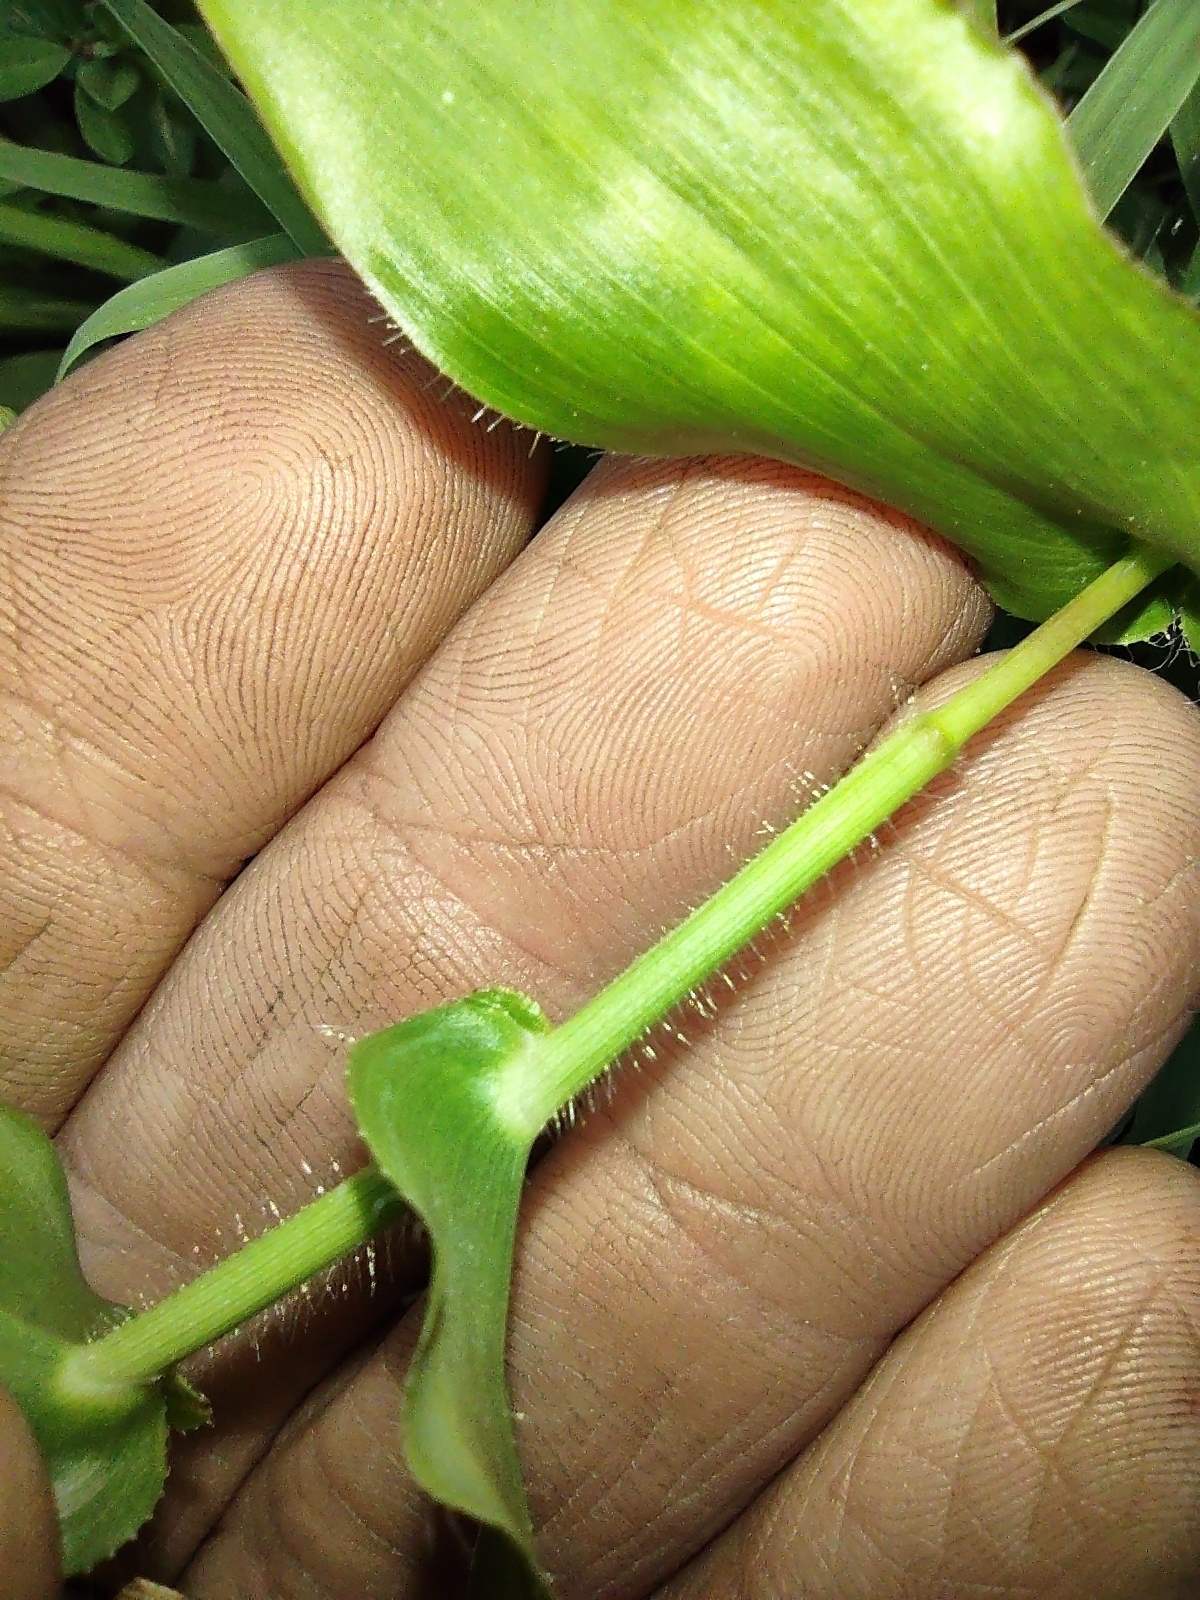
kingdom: Plantae
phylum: Tracheophyta
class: Liliopsida
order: Poales
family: Poaceae
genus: Arthraxon
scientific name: Arthraxon hispidus
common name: Small carpgrass
